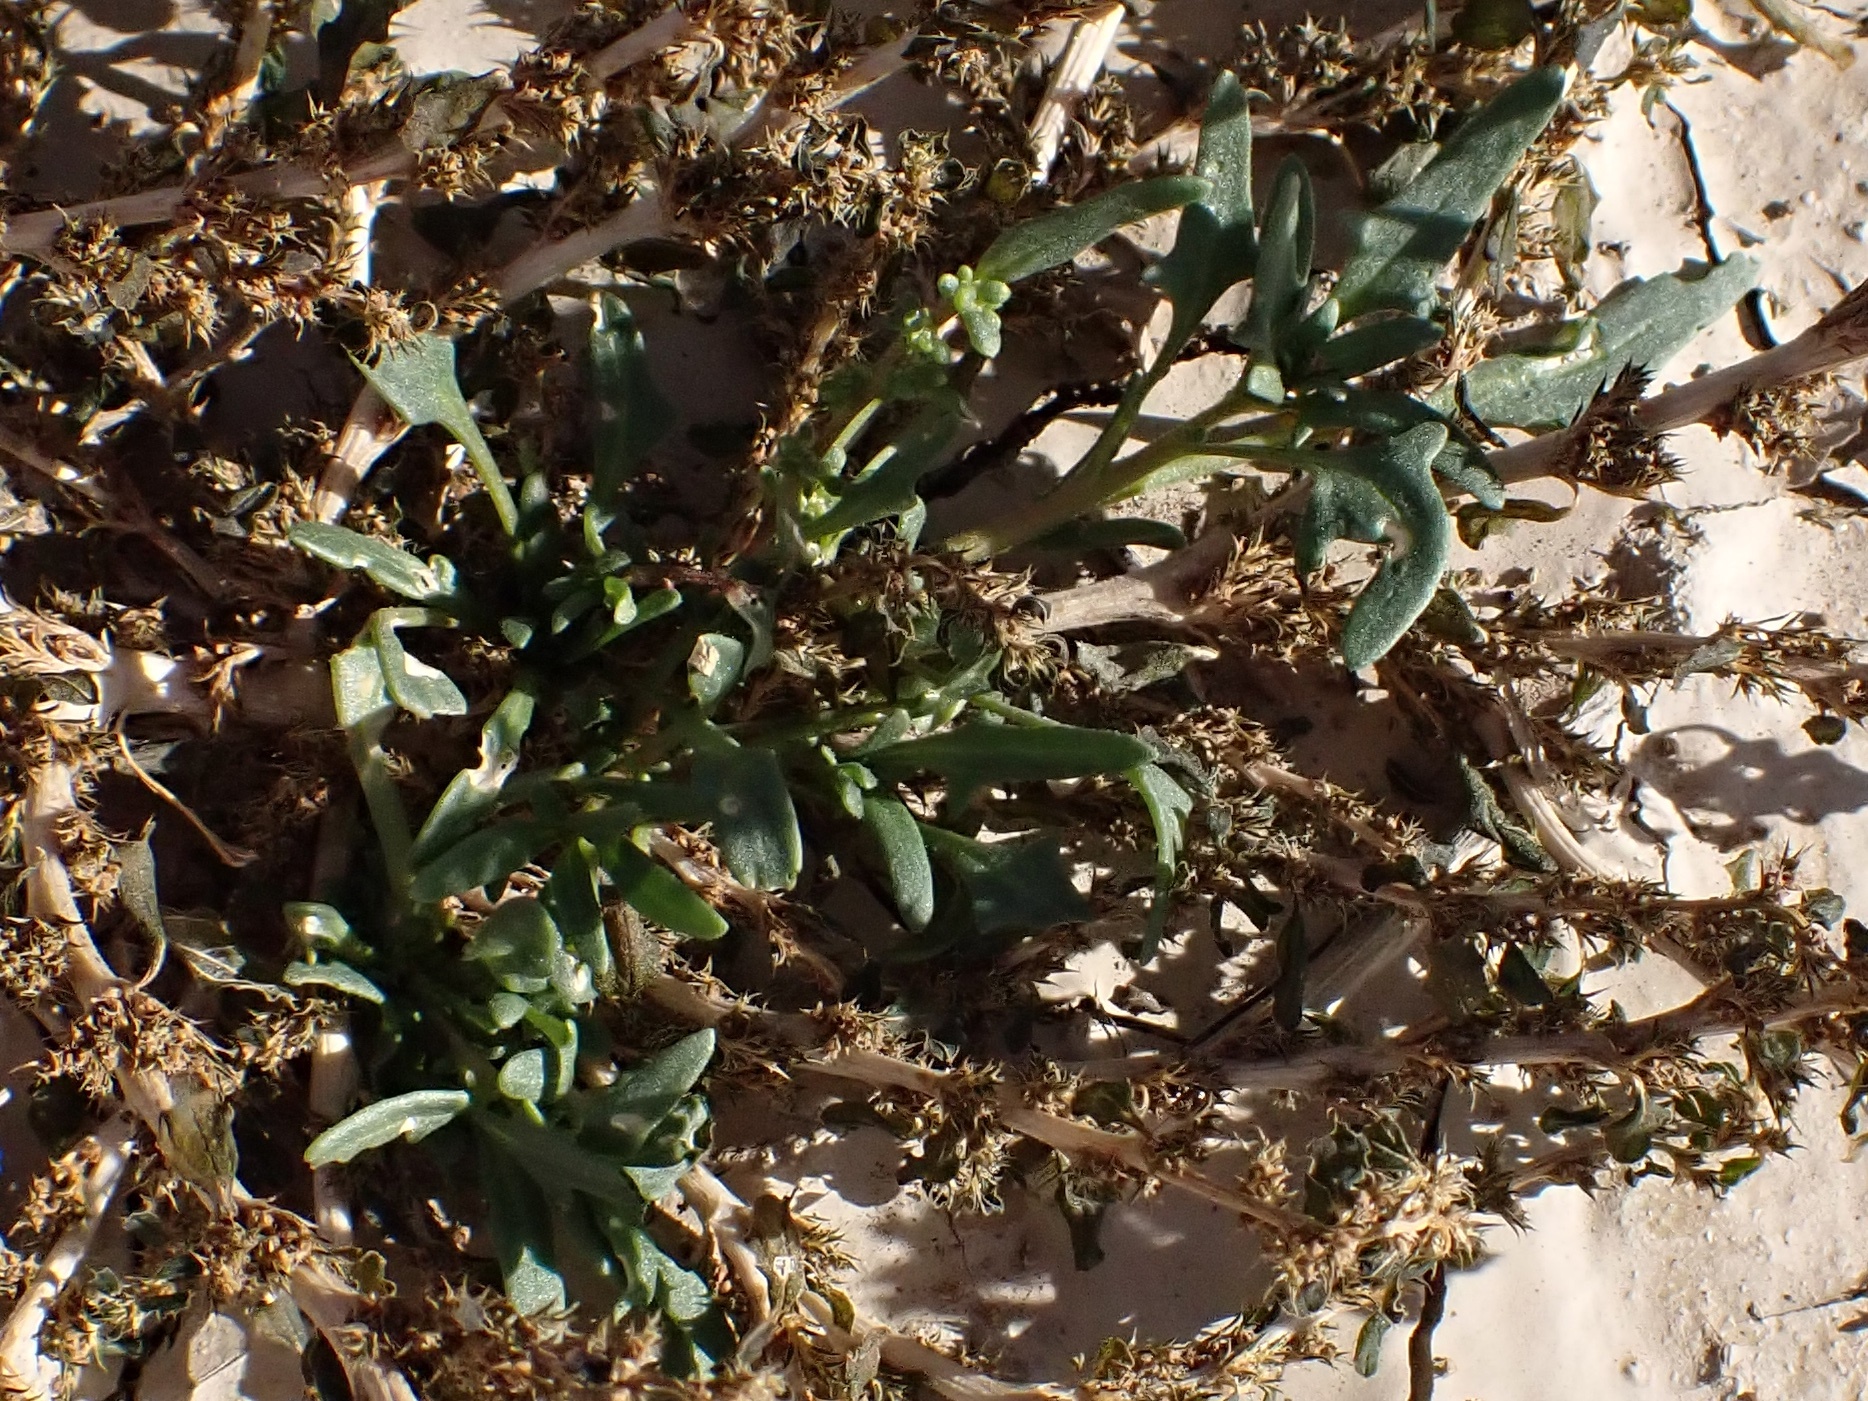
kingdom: Plantae
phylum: Tracheophyta
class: Magnoliopsida
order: Caryophyllales
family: Amaranthaceae
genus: Blitum
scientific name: Blitum nuttallianum
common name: Poverty-weed
